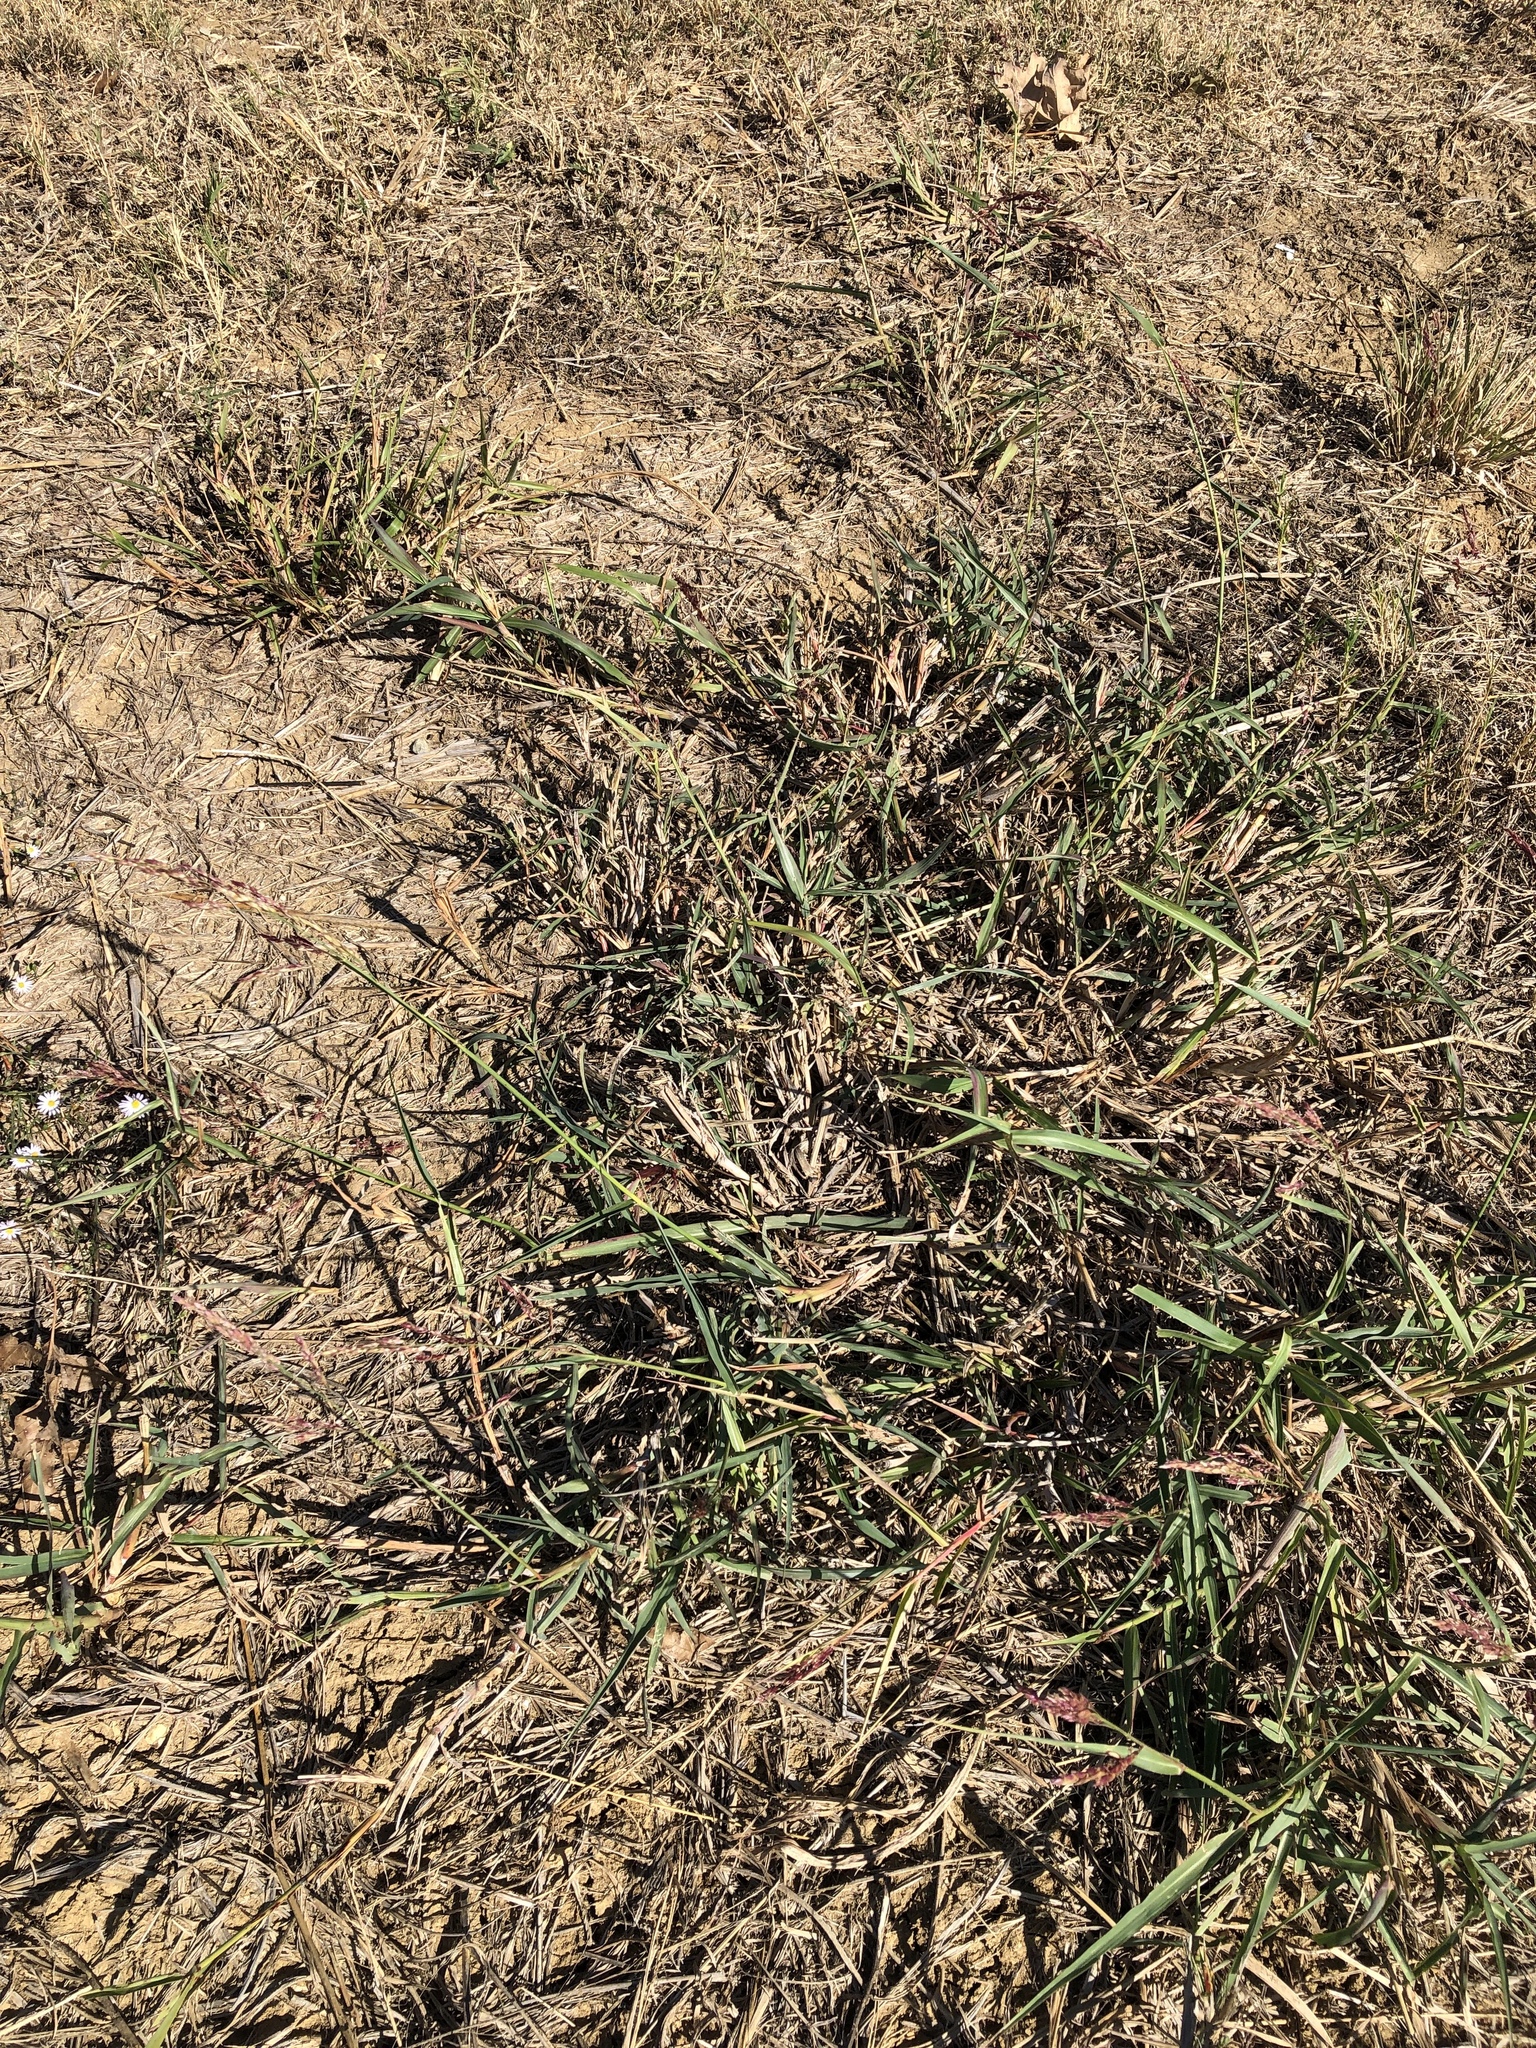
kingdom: Plantae
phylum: Tracheophyta
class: Liliopsida
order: Poales
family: Poaceae
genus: Sorghum
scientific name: Sorghum halepense
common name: Johnson-grass
